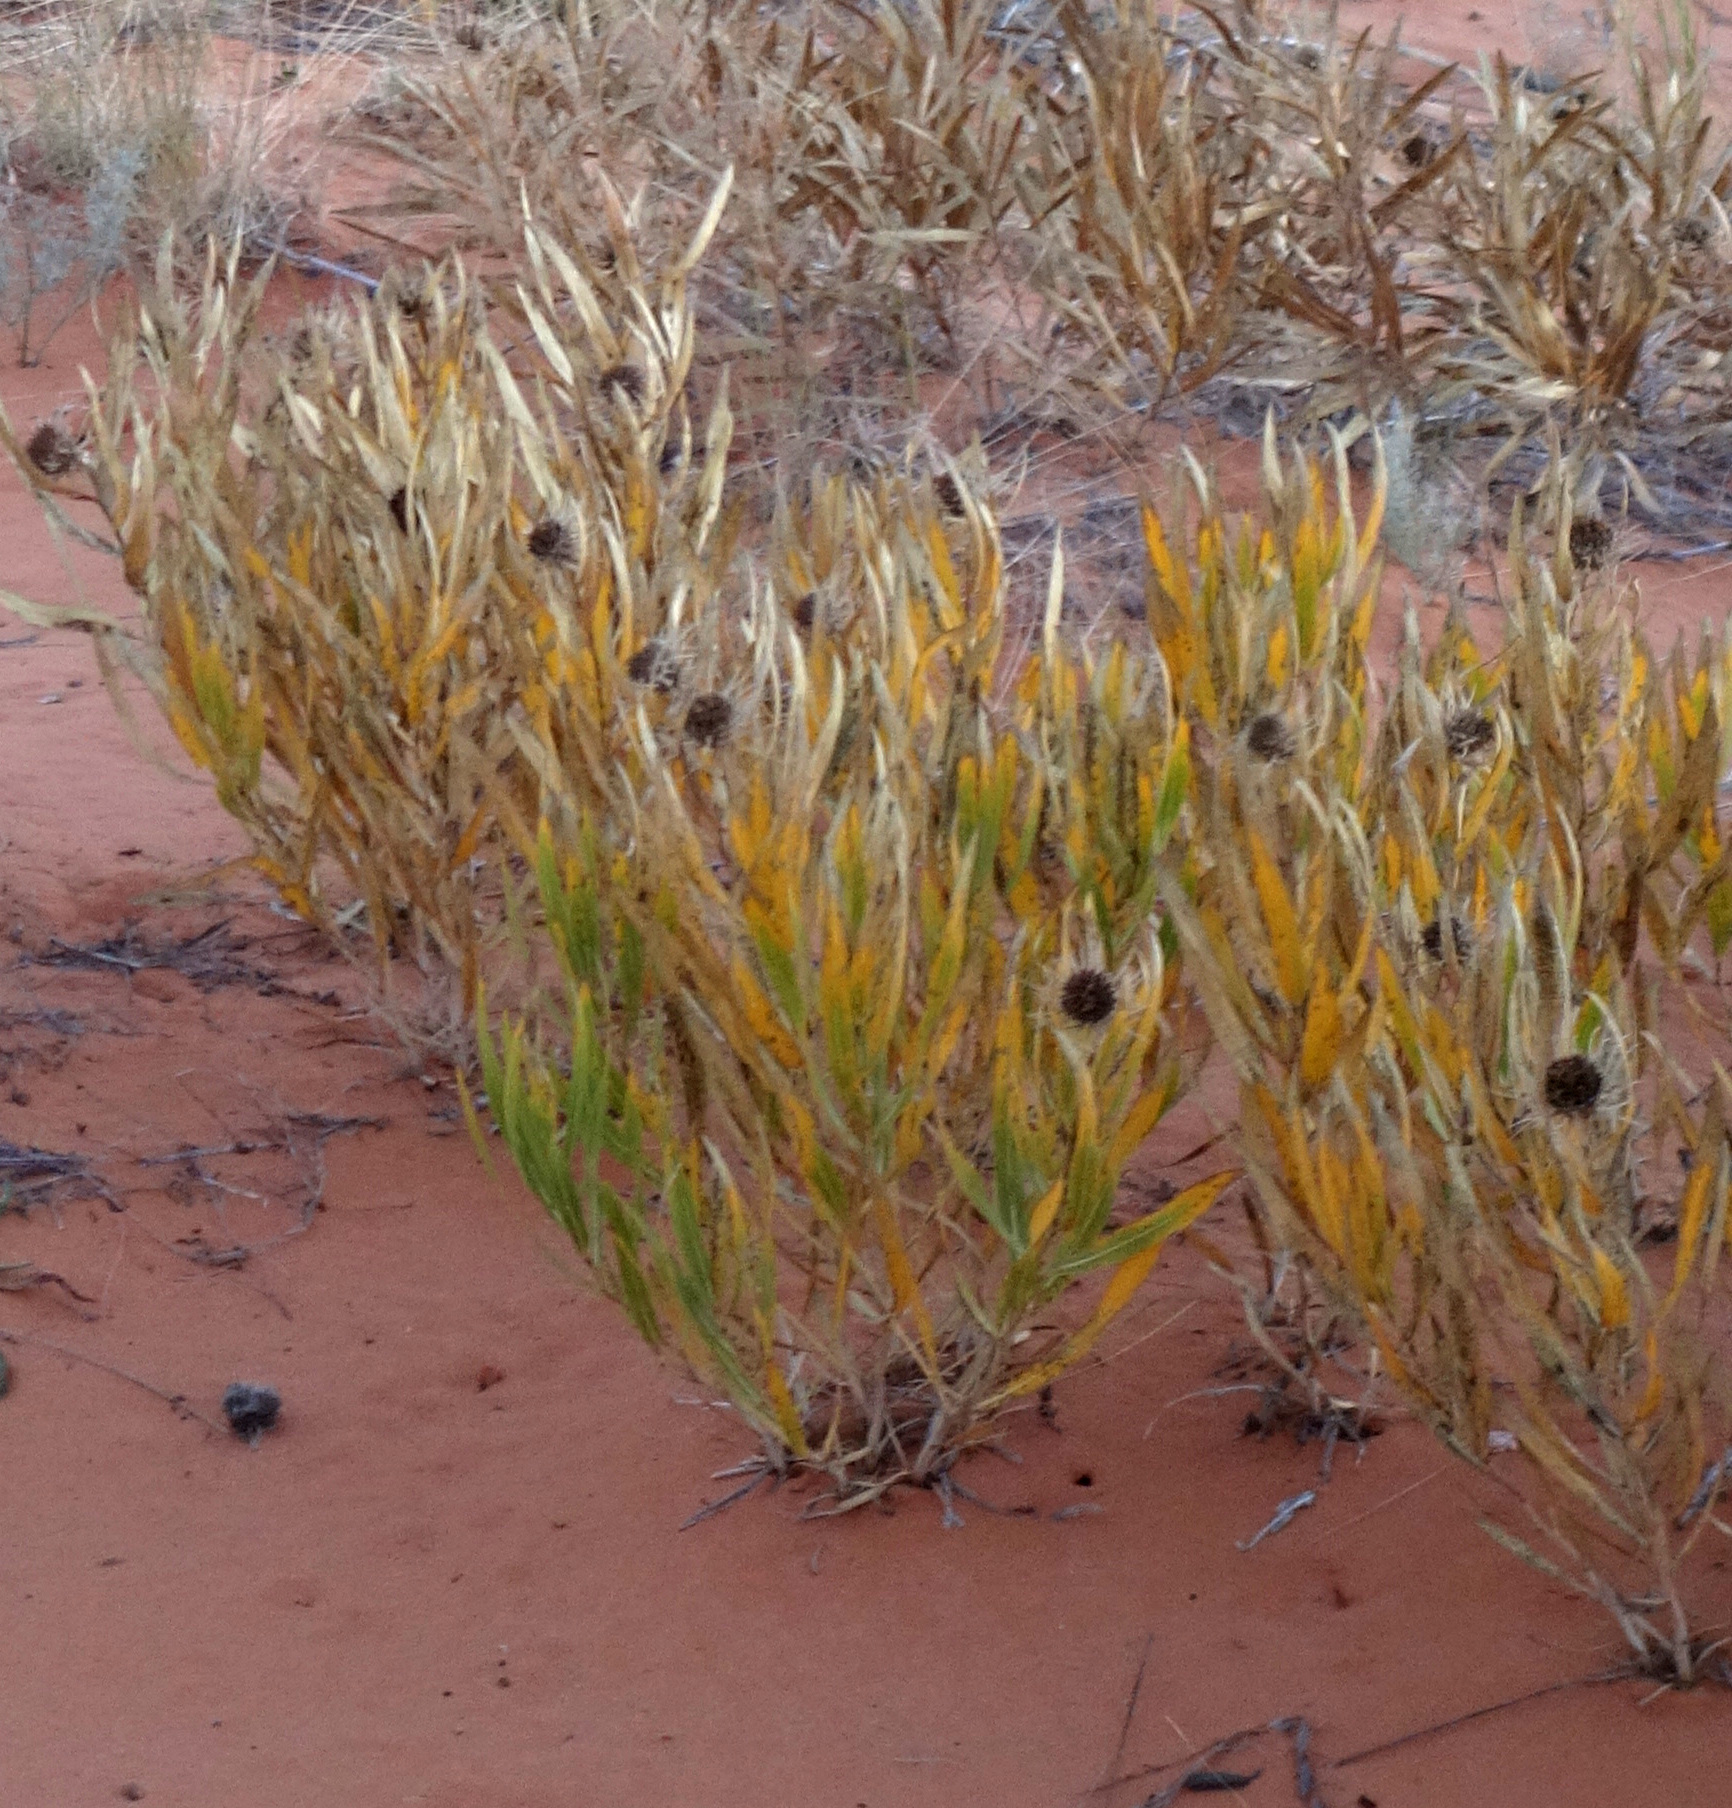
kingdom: Plantae
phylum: Tracheophyta
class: Magnoliopsida
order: Asterales
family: Asteraceae
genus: Scabrethia
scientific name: Scabrethia scabra
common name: Rough mules's-ears
